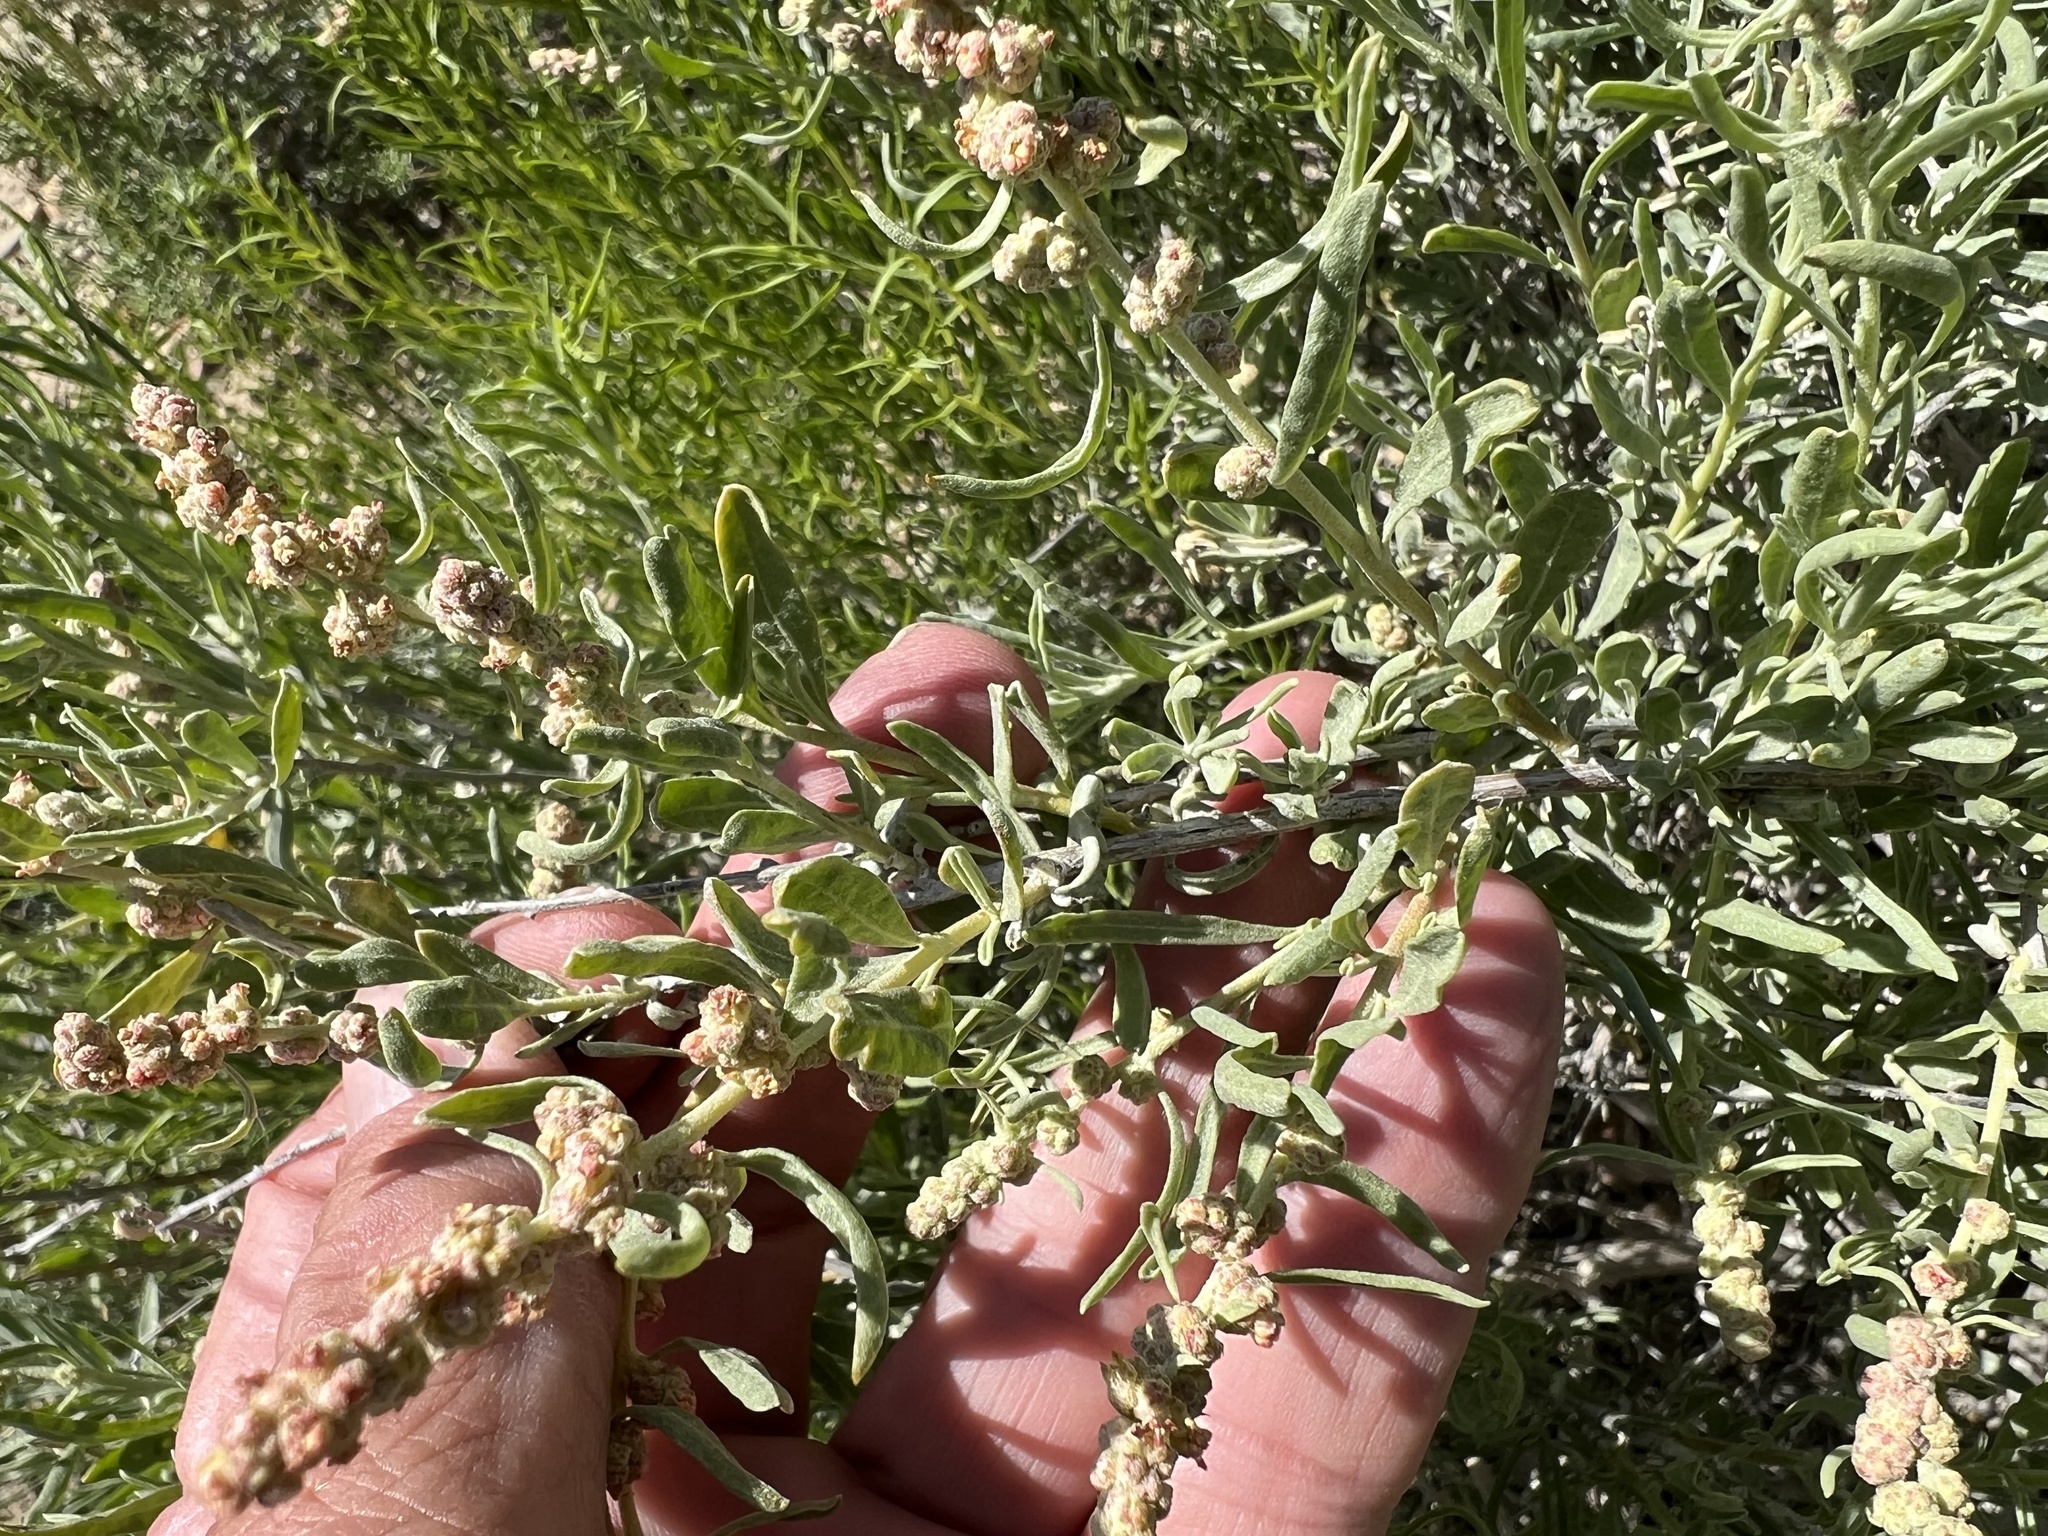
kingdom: Plantae
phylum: Tracheophyta
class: Magnoliopsida
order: Caryophyllales
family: Amaranthaceae
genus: Atriplex
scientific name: Atriplex canescens
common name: Four-wing saltbush
